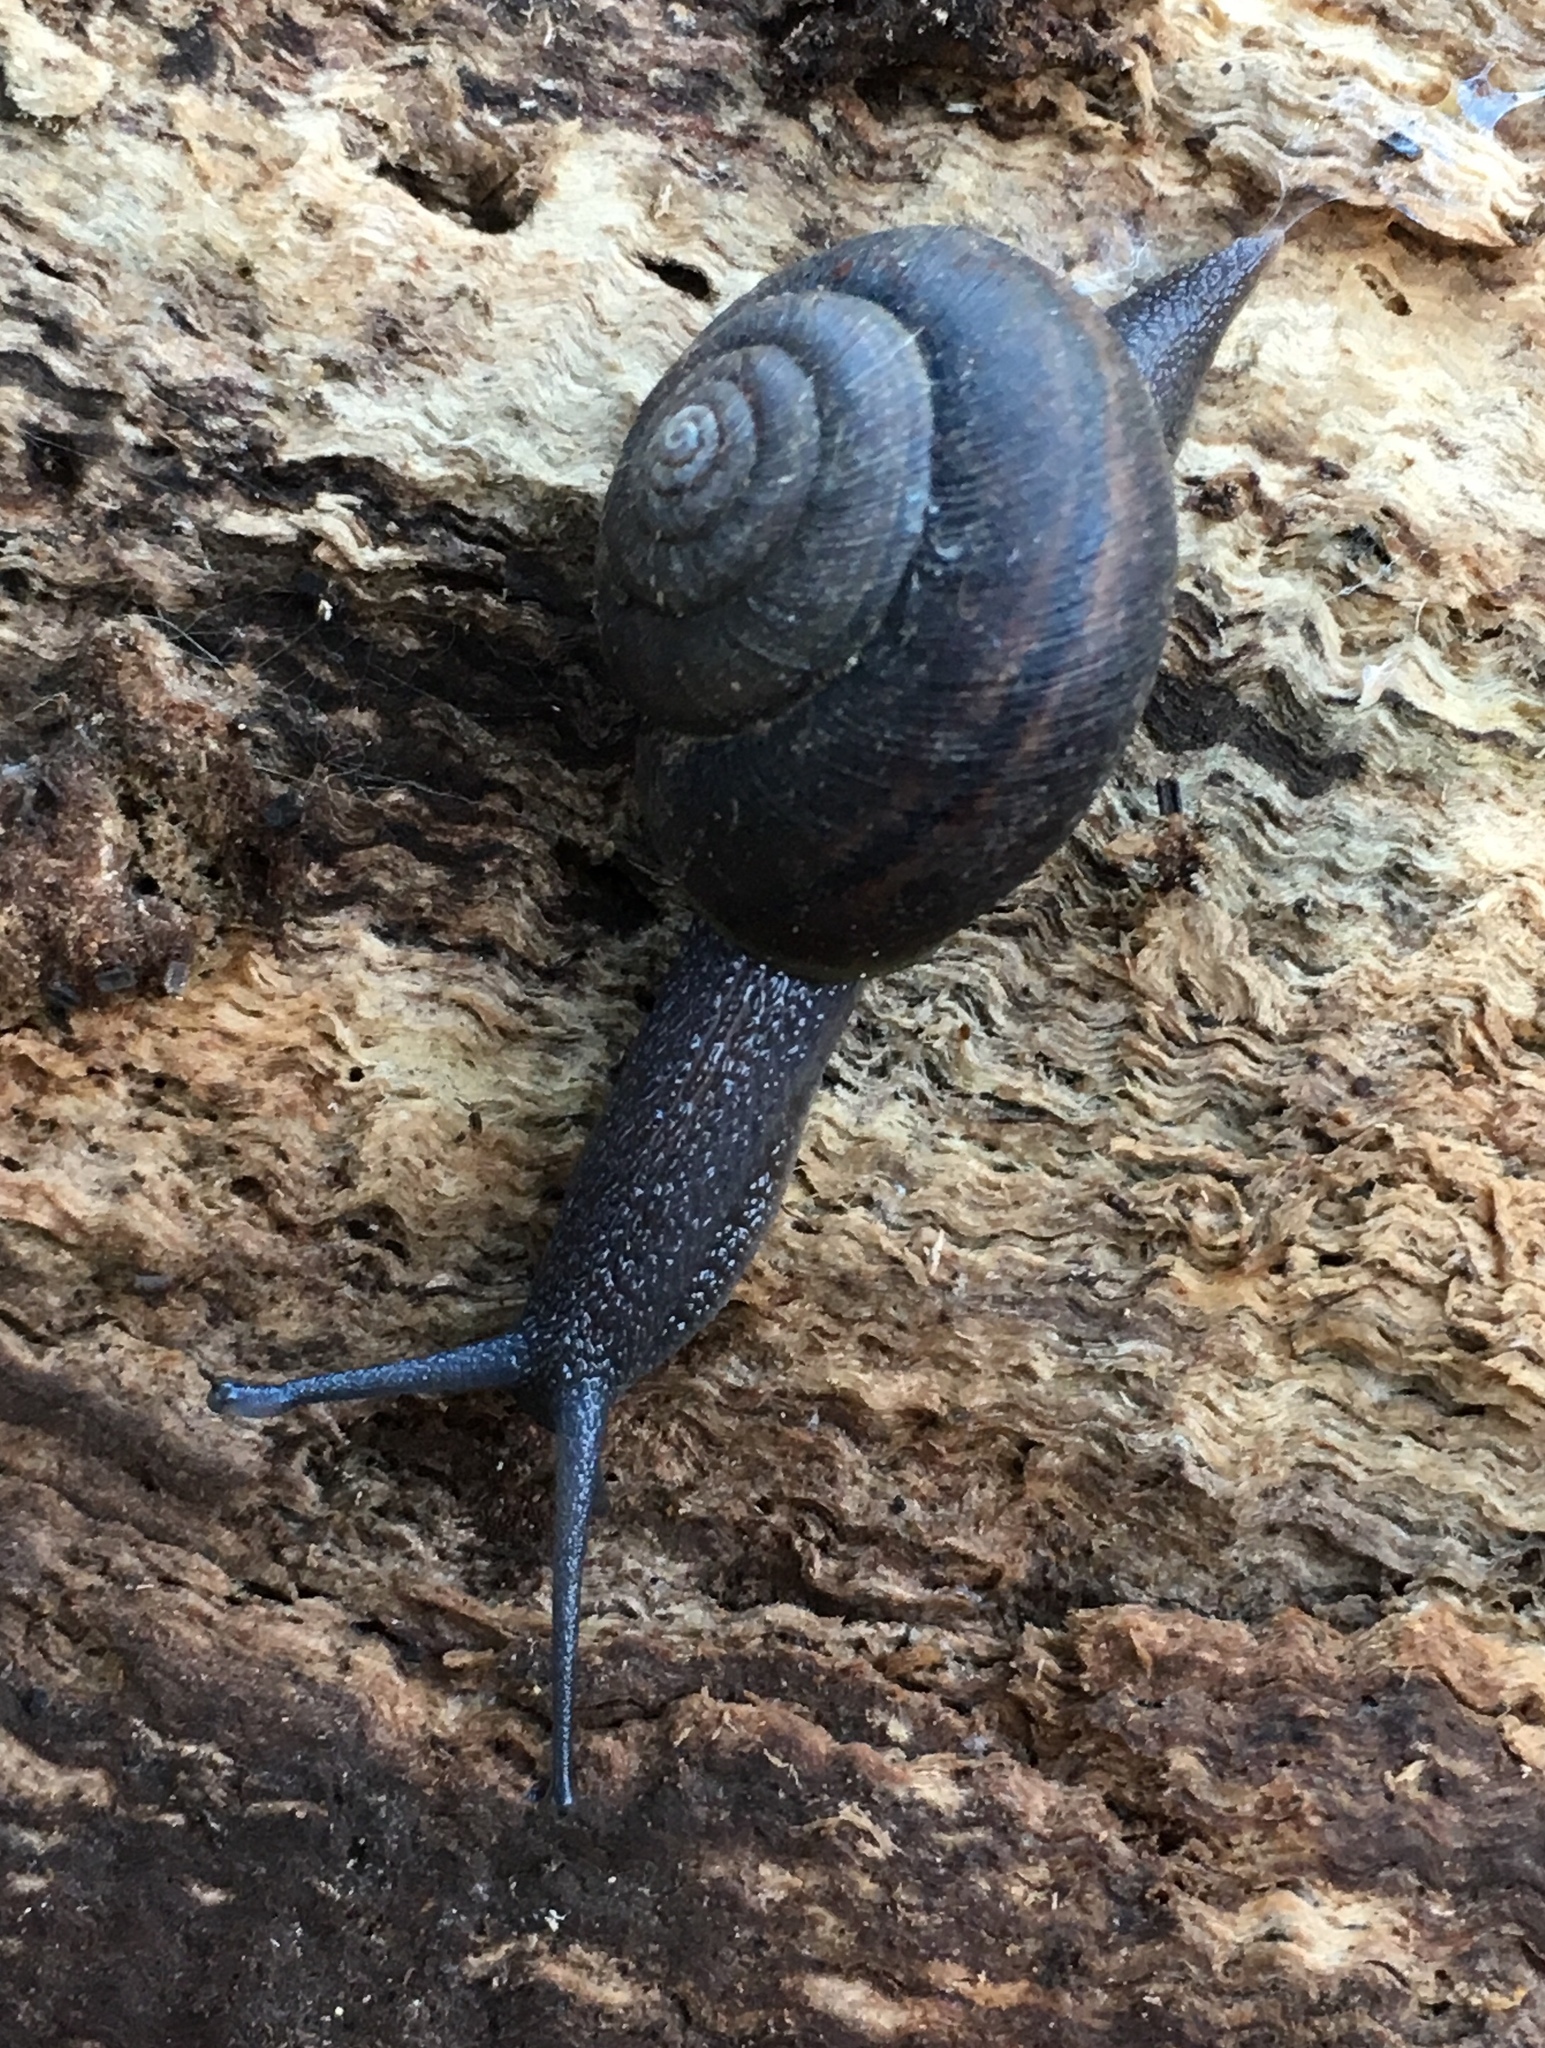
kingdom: Animalia
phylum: Mollusca
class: Gastropoda
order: Stylommatophora
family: Xanthonychidae
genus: Helminthoglypta
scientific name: Helminthoglypta sanctaecrucis
